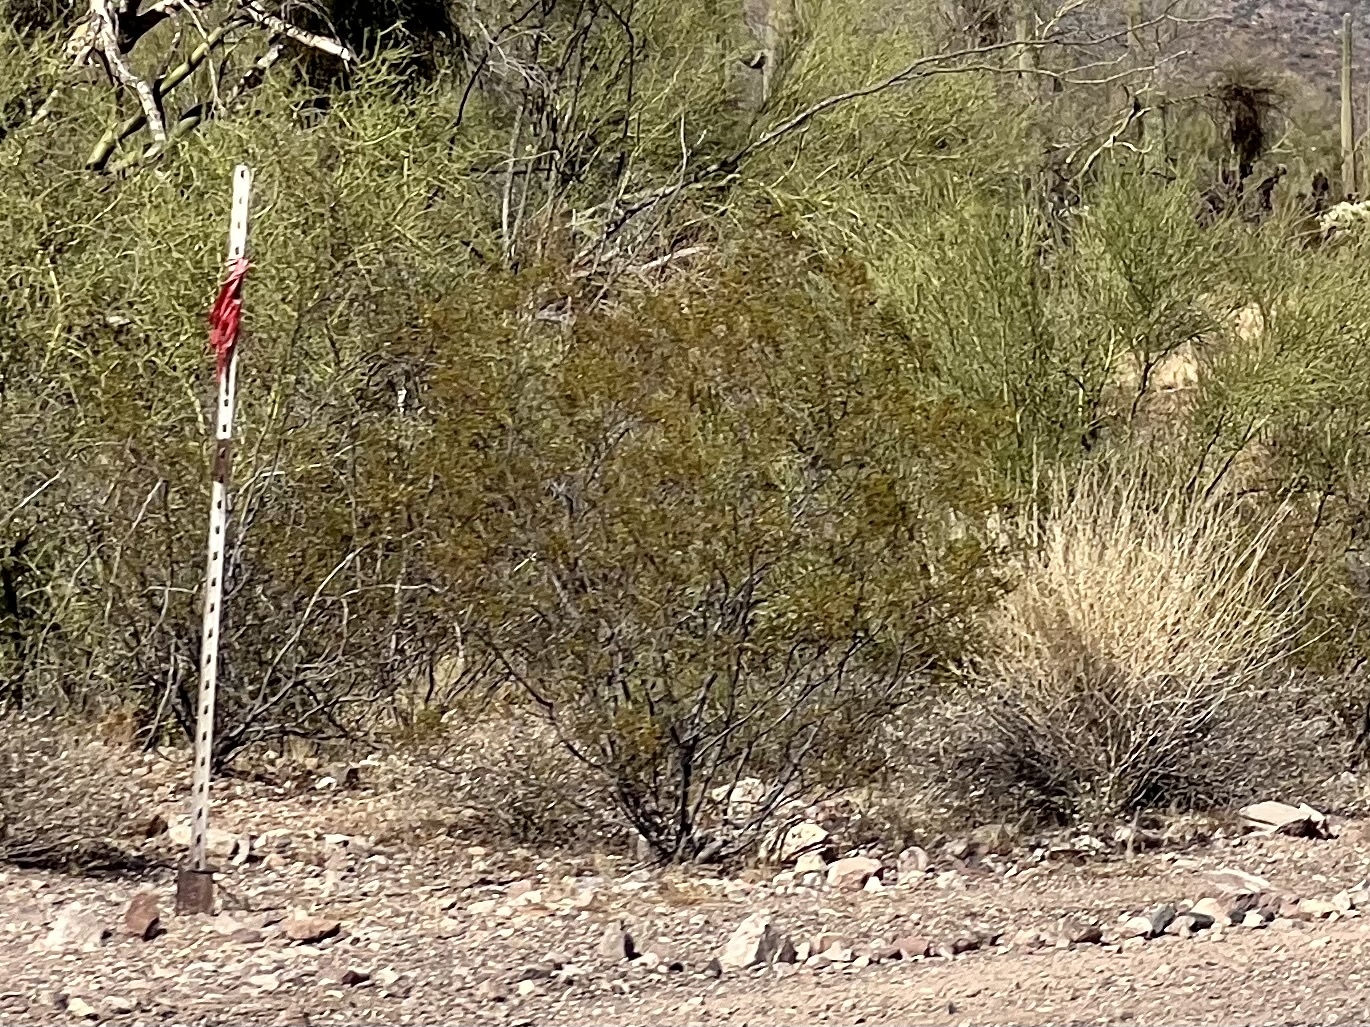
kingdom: Plantae
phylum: Tracheophyta
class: Magnoliopsida
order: Zygophyllales
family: Zygophyllaceae
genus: Larrea
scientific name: Larrea tridentata
